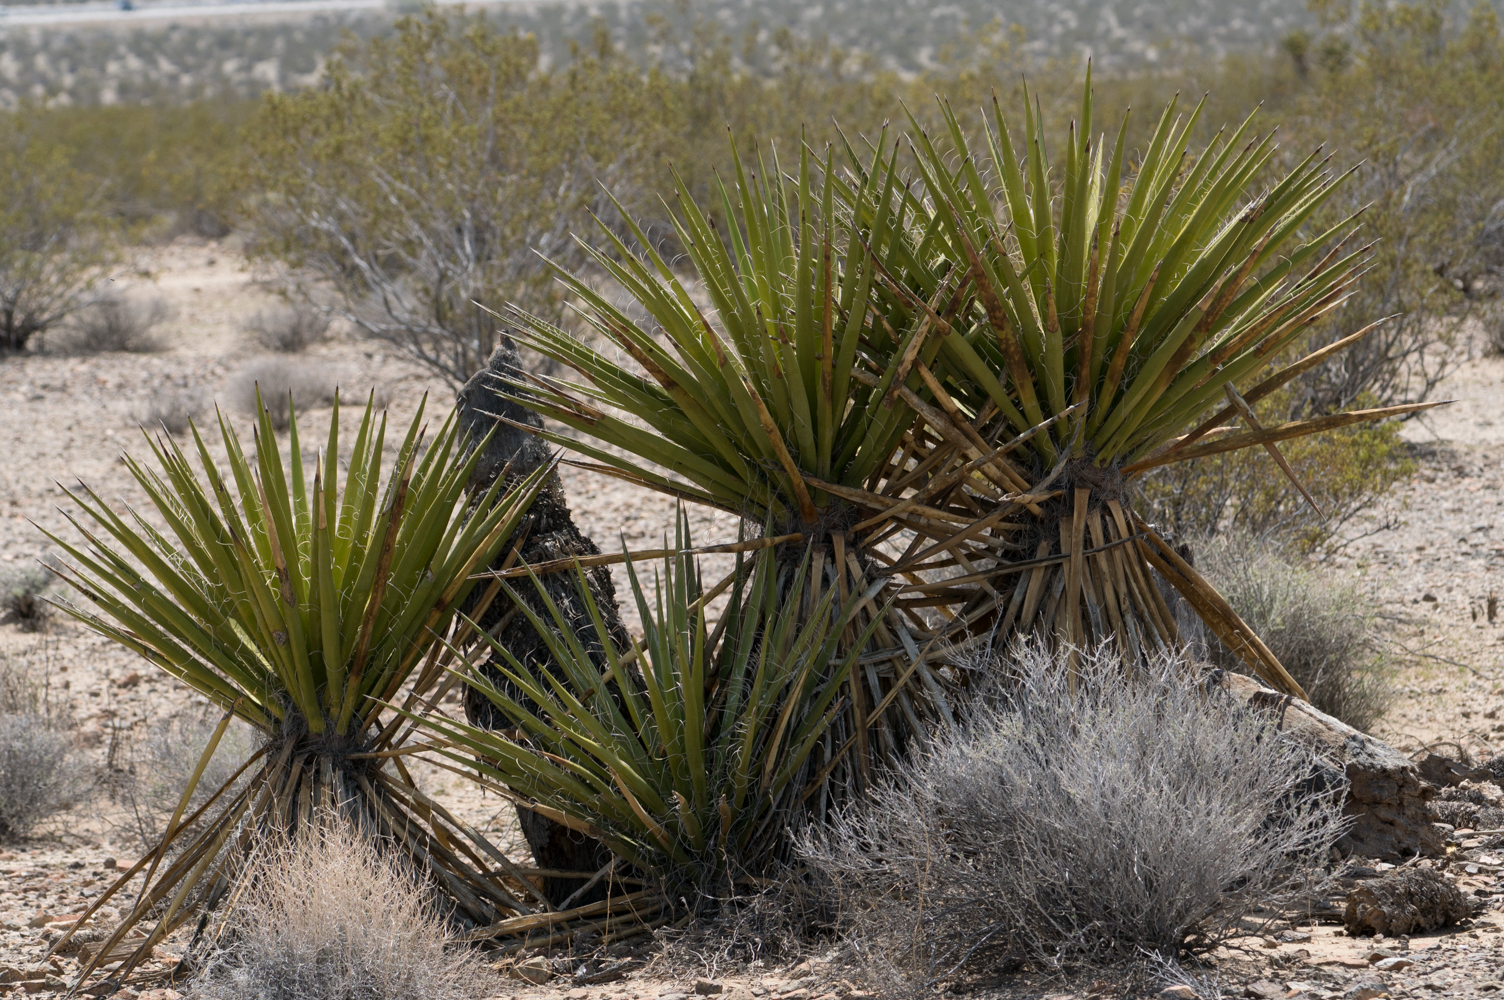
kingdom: Plantae
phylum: Tracheophyta
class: Liliopsida
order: Asparagales
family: Asparagaceae
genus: Yucca
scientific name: Yucca schidigera
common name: Mojave yucca
